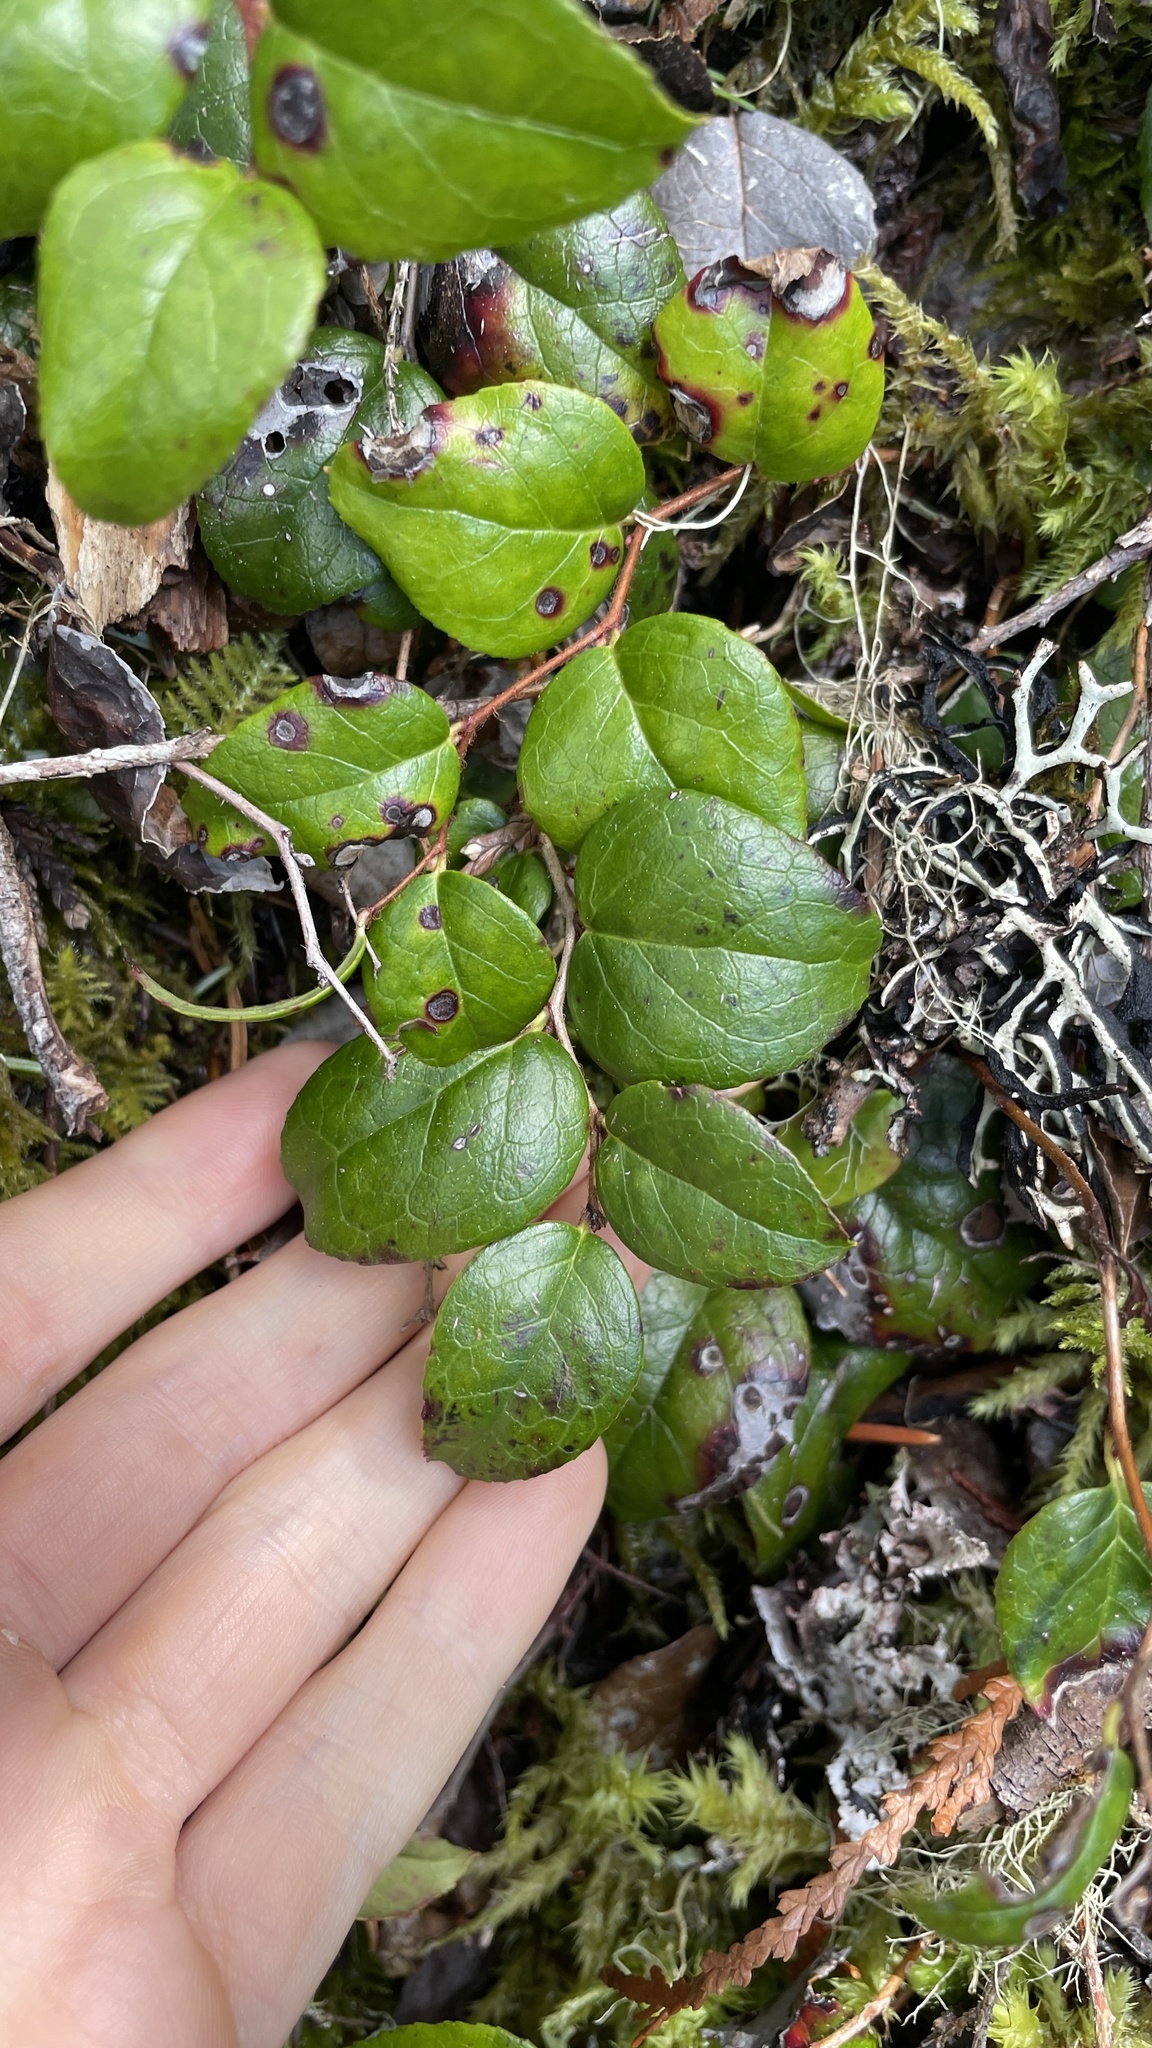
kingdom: Plantae
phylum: Tracheophyta
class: Magnoliopsida
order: Ericales
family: Ericaceae
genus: Gaultheria
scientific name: Gaultheria ovatifolia
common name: Oregon wintergreen
